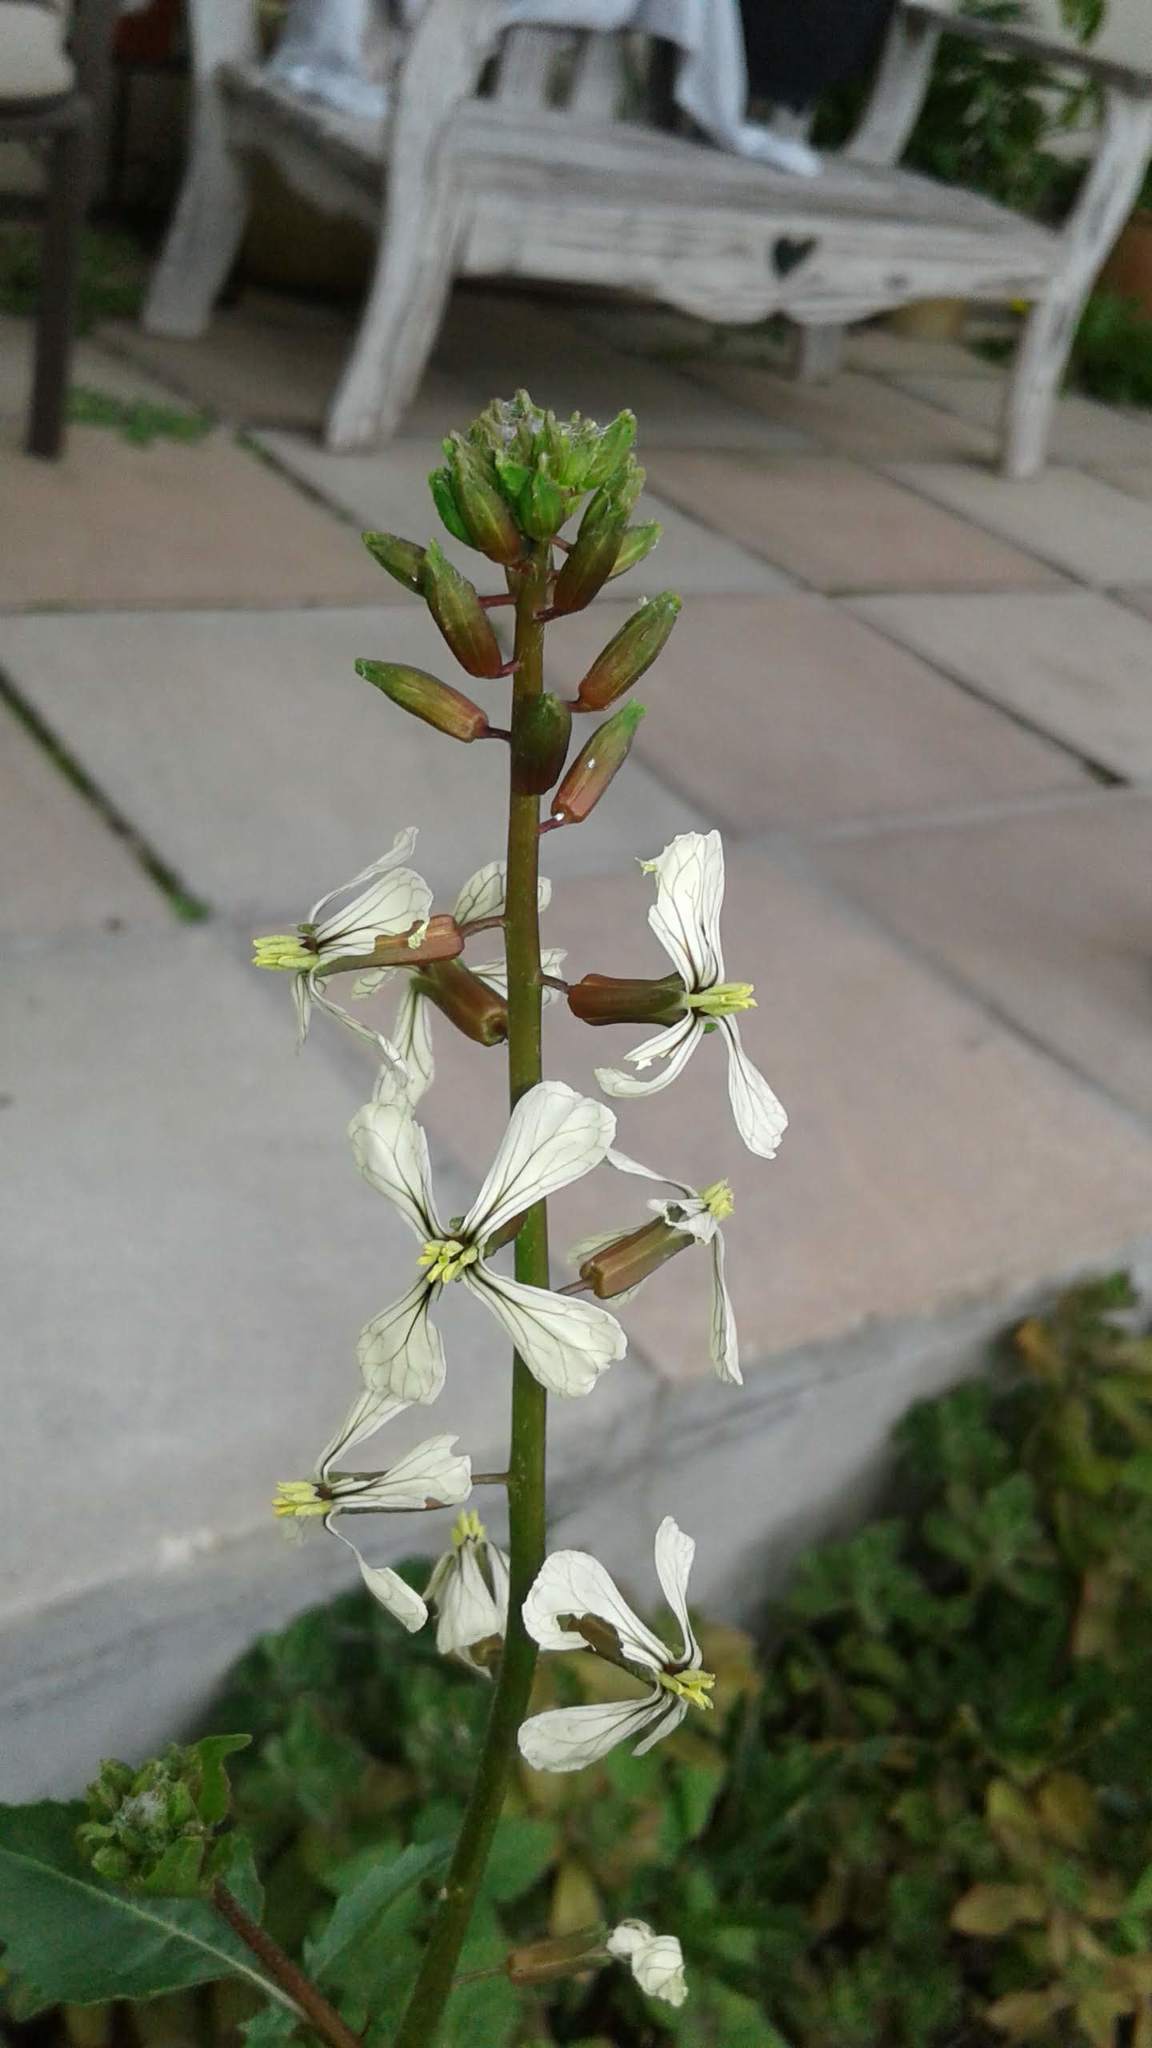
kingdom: Plantae
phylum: Tracheophyta
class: Magnoliopsida
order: Brassicales
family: Brassicaceae
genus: Eruca
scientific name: Eruca vesicaria
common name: Garden rocket
